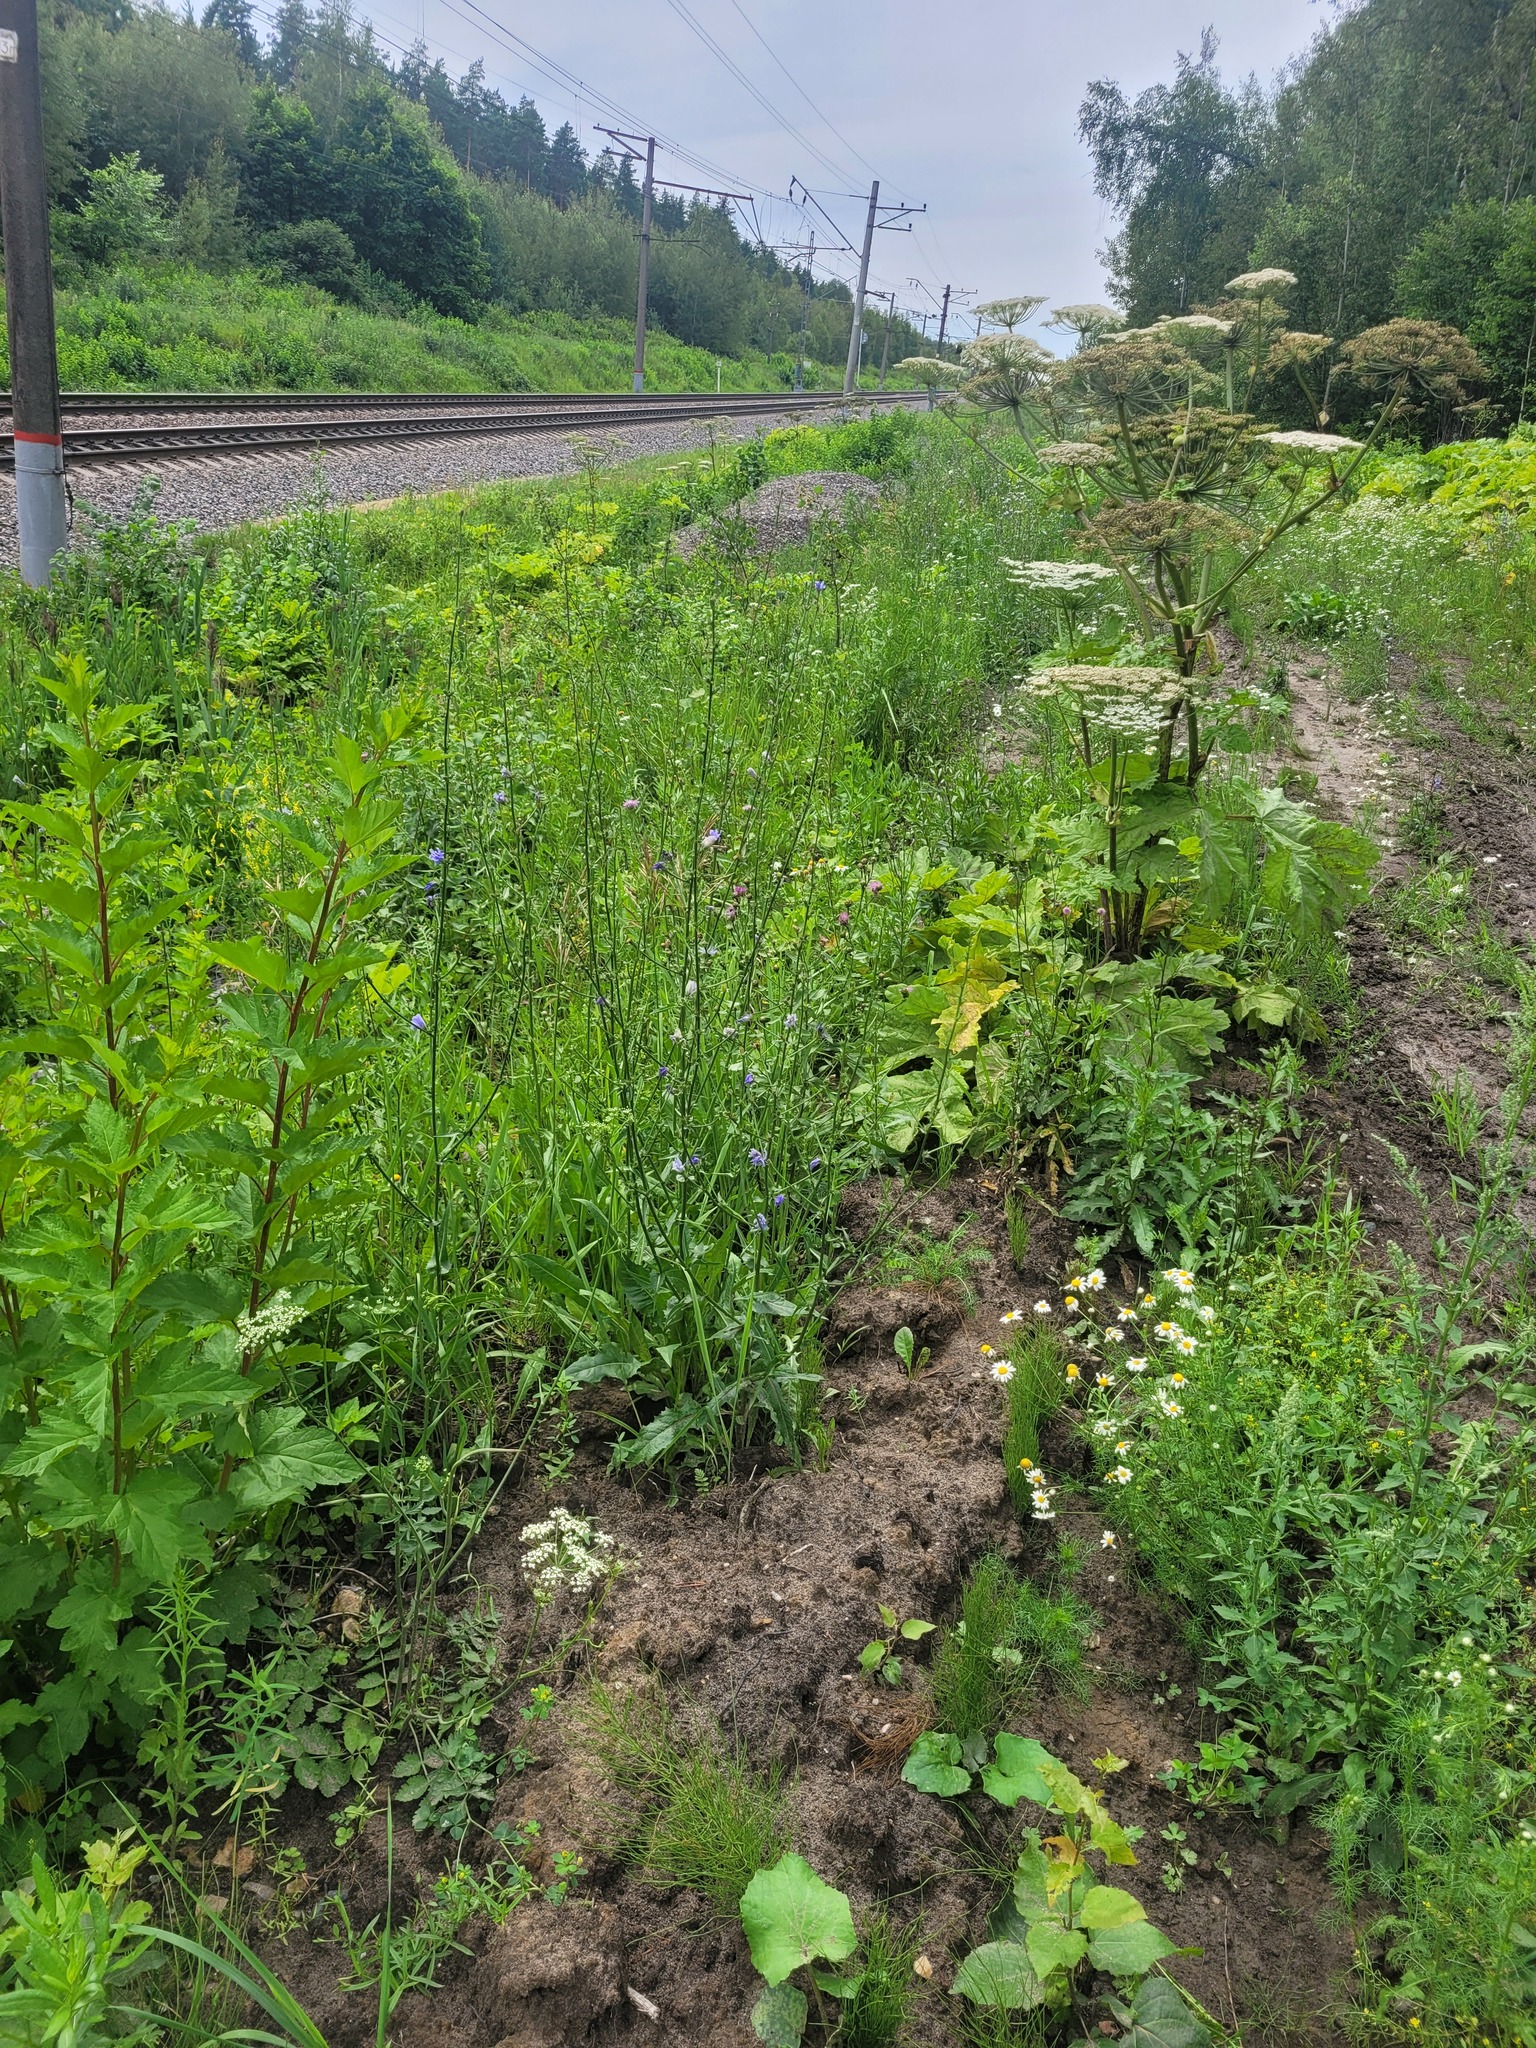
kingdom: Plantae
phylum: Tracheophyta
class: Magnoliopsida
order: Asterales
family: Asteraceae
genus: Cichorium
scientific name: Cichorium intybus
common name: Chicory
